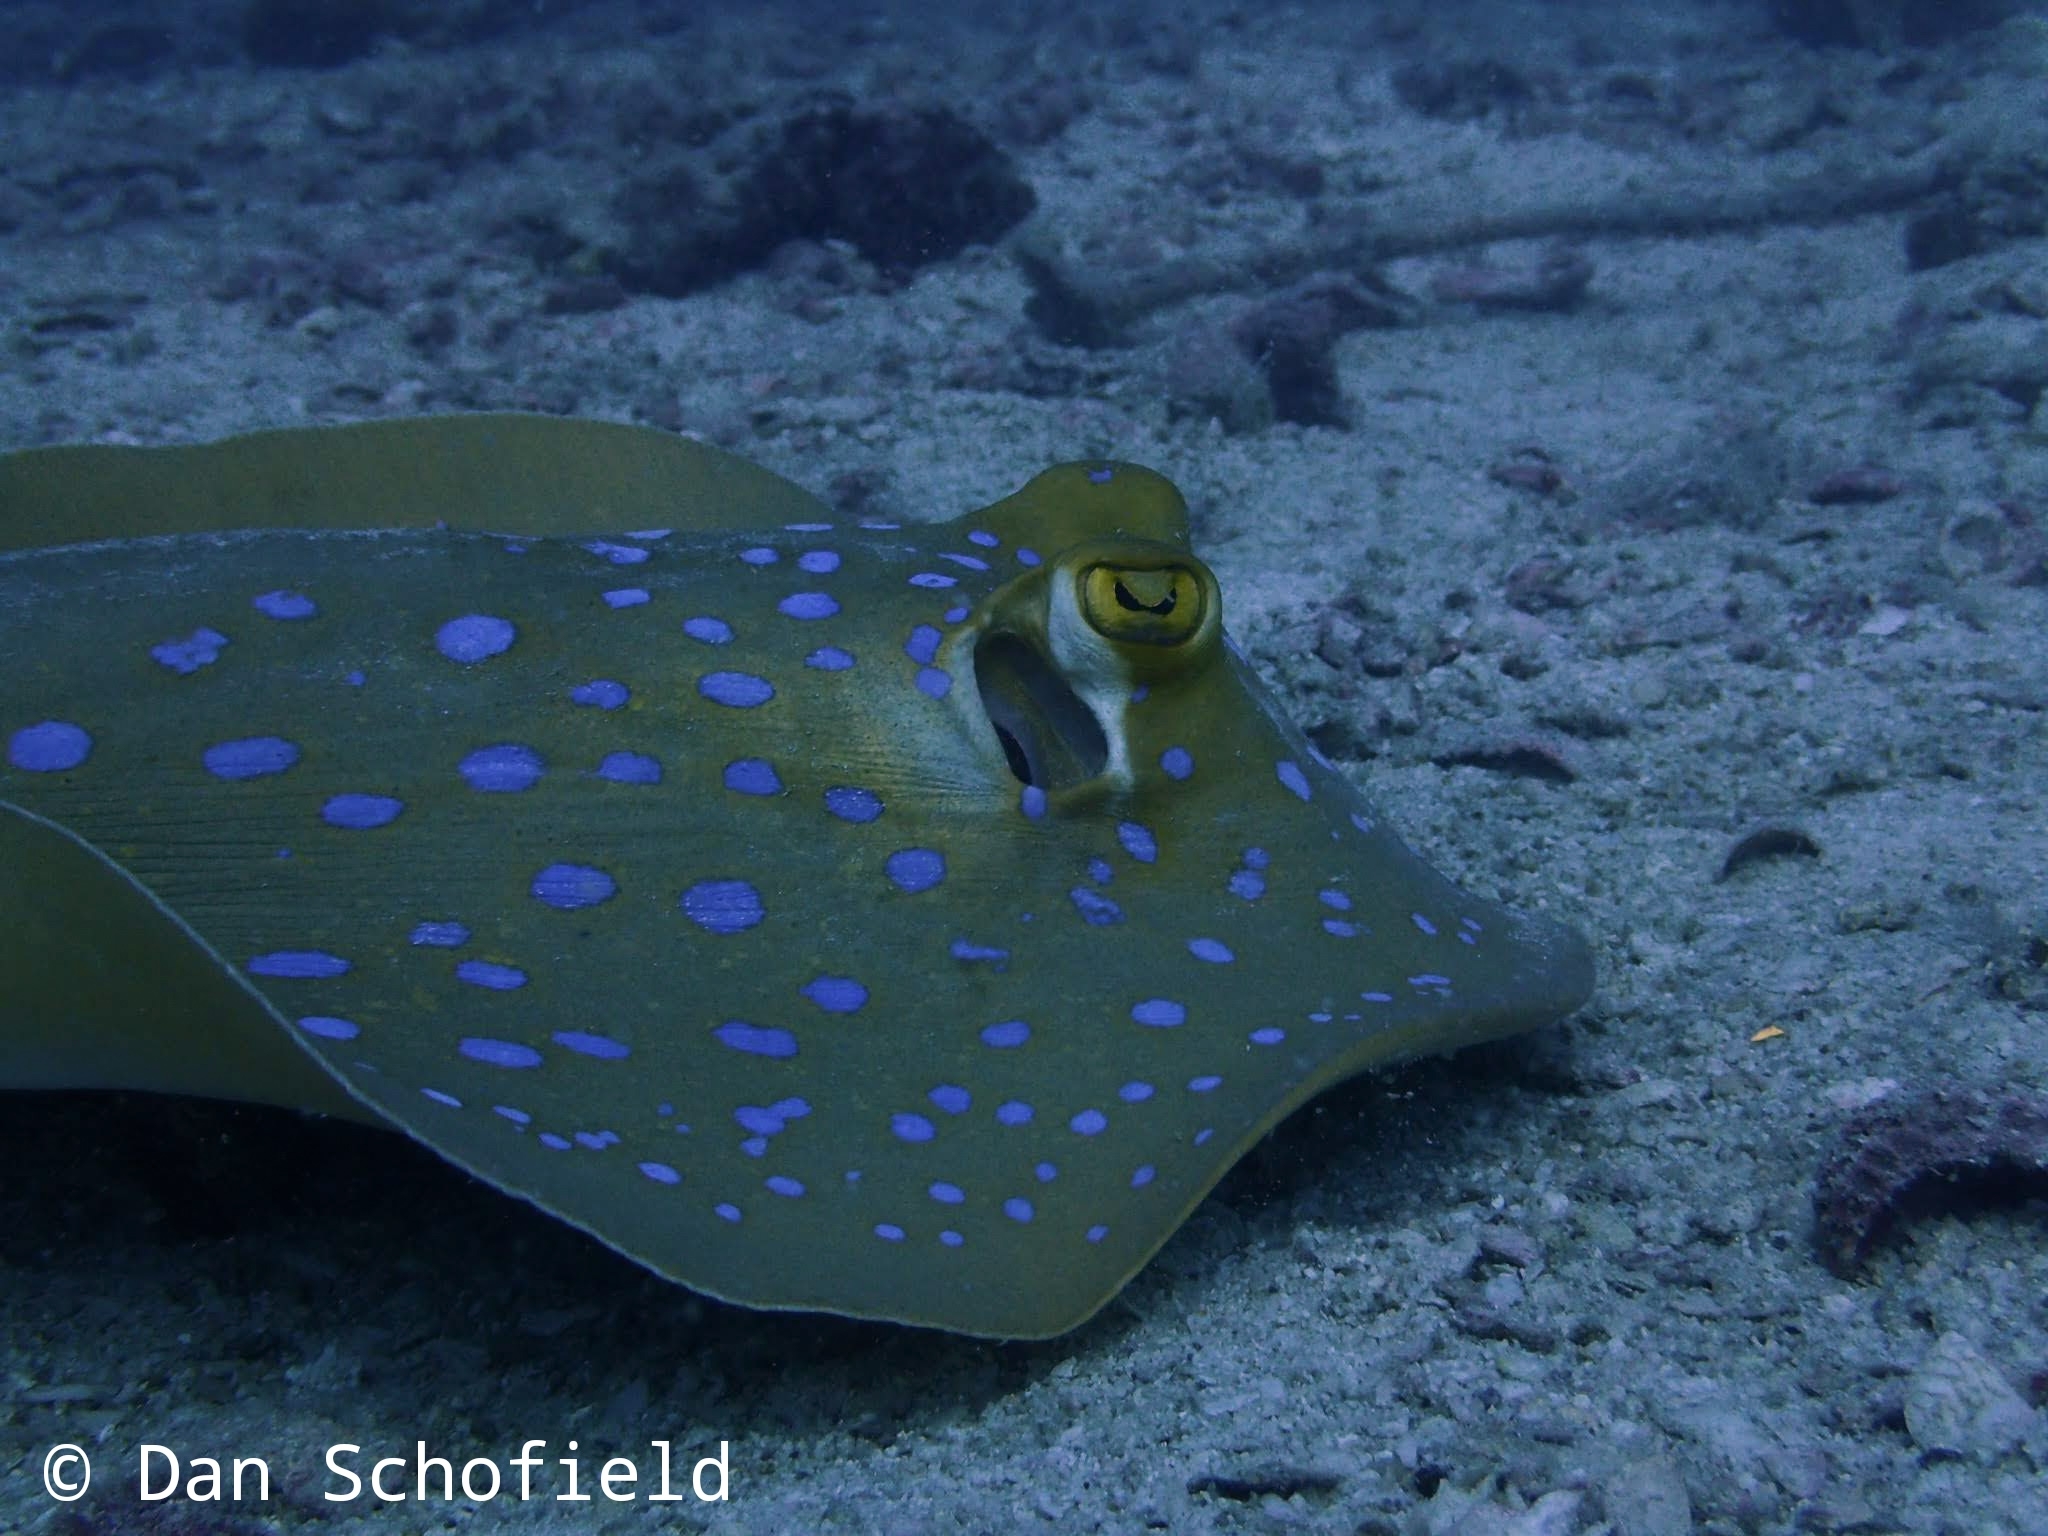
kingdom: Animalia
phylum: Chordata
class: Elasmobranchii
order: Myliobatiformes
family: Dasyatidae
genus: Taeniura
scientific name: Taeniura lymma
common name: Bluespotted ribbontail ray
